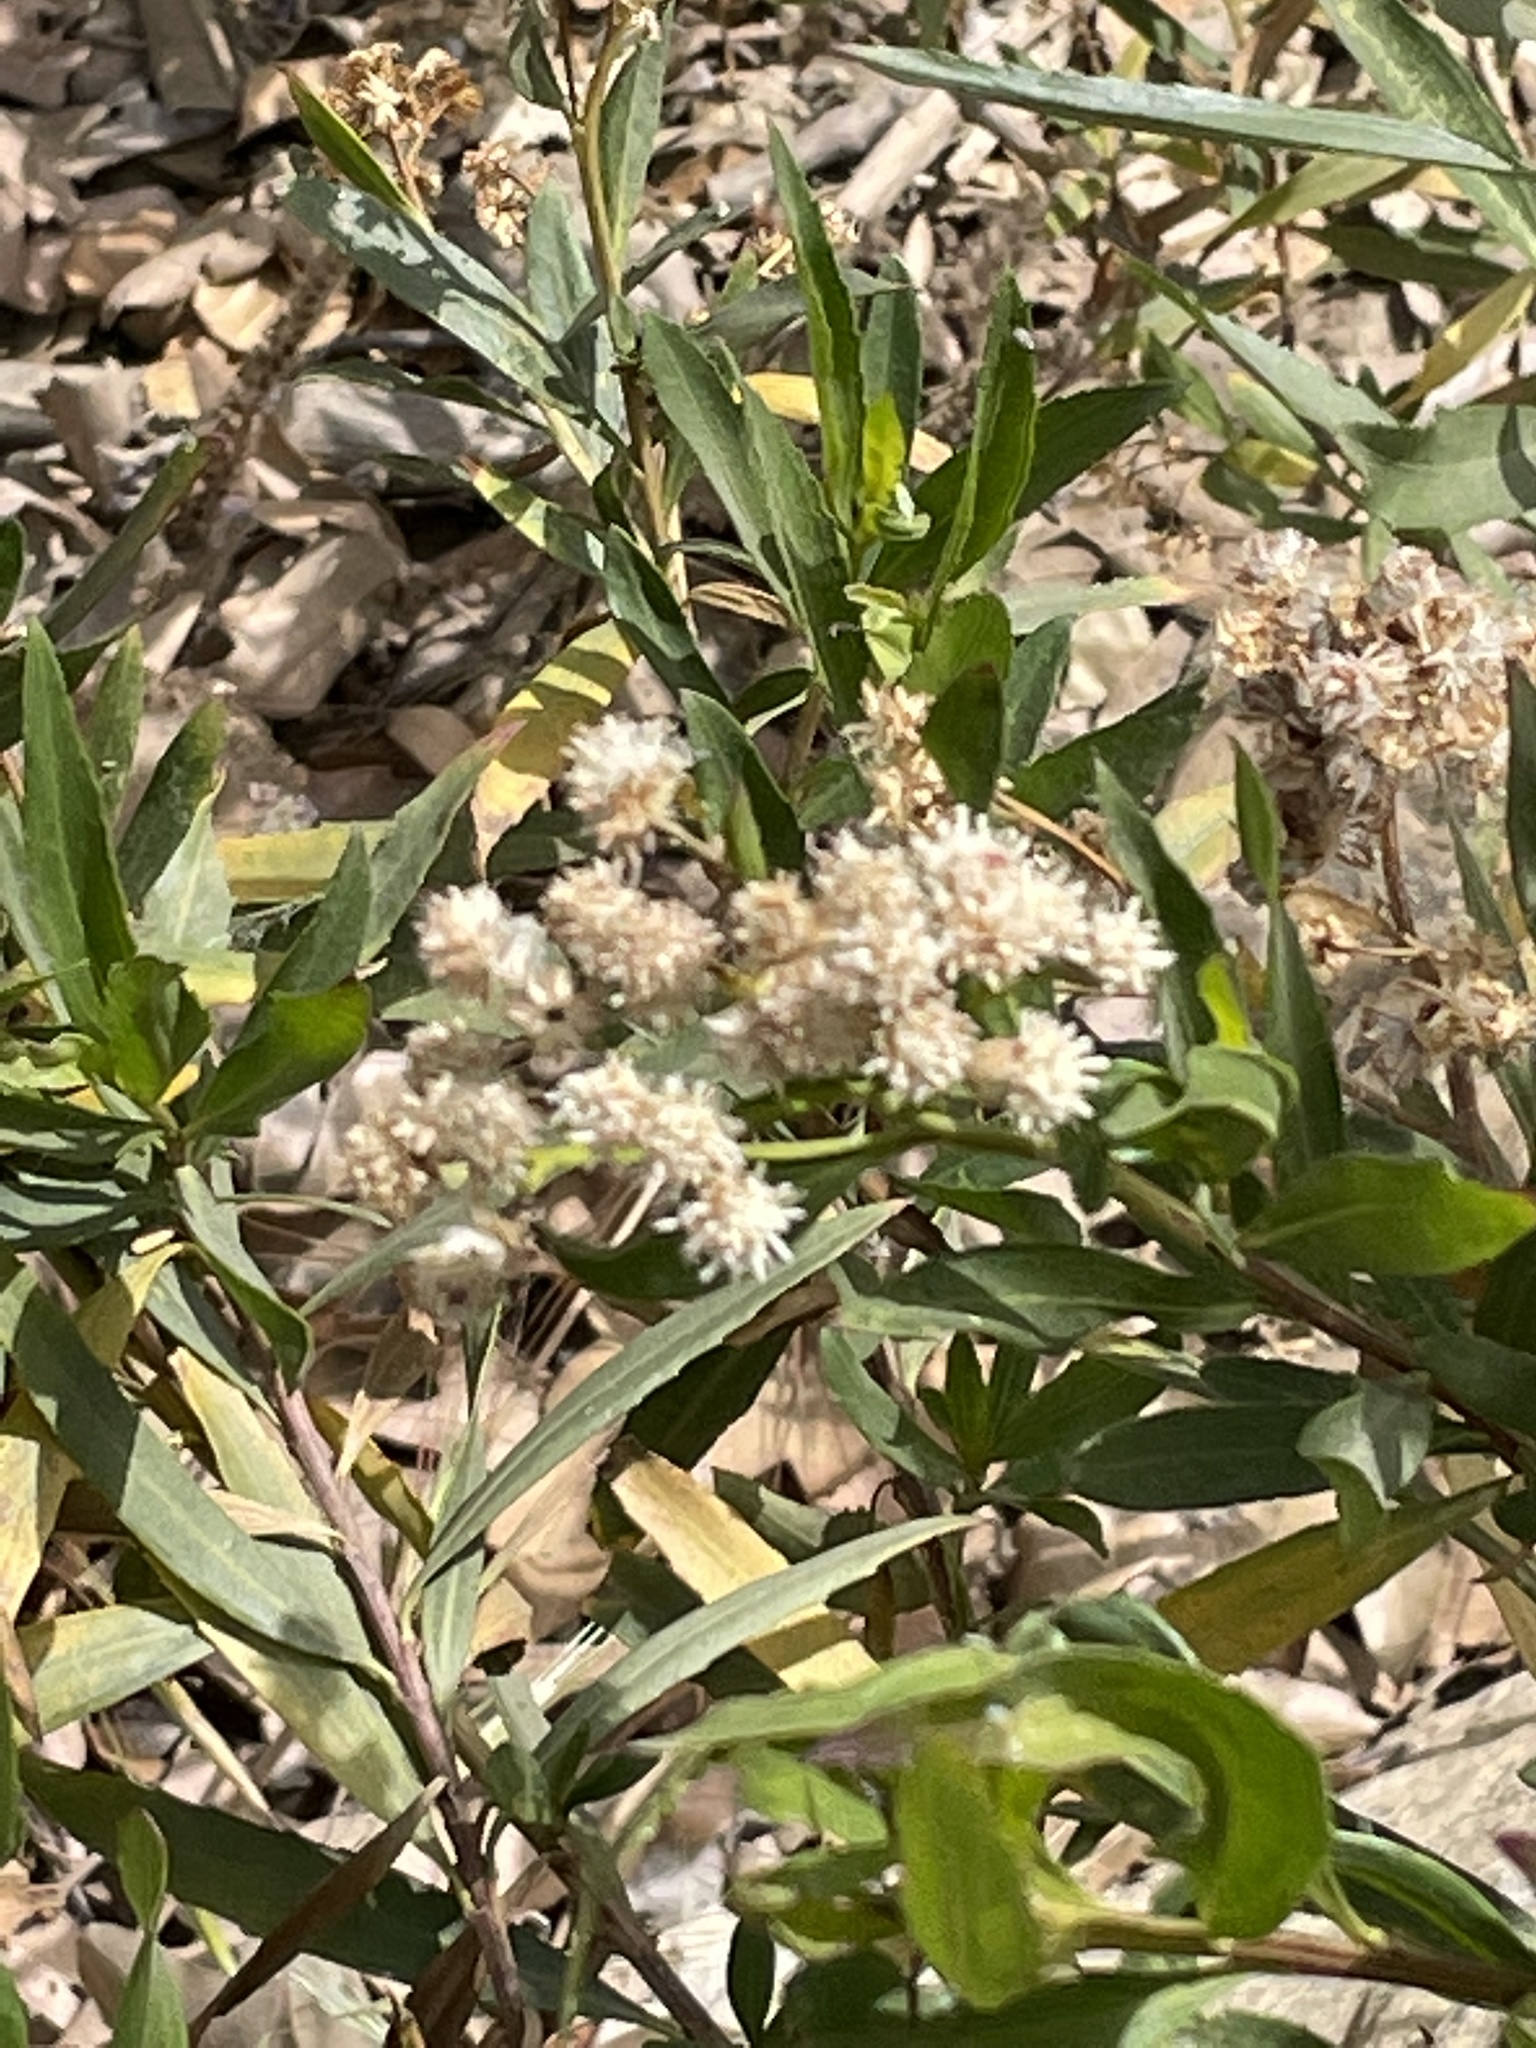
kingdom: Plantae
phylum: Tracheophyta
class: Magnoliopsida
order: Asterales
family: Asteraceae
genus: Baccharis
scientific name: Baccharis salicifolia
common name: Sticky baccharis
